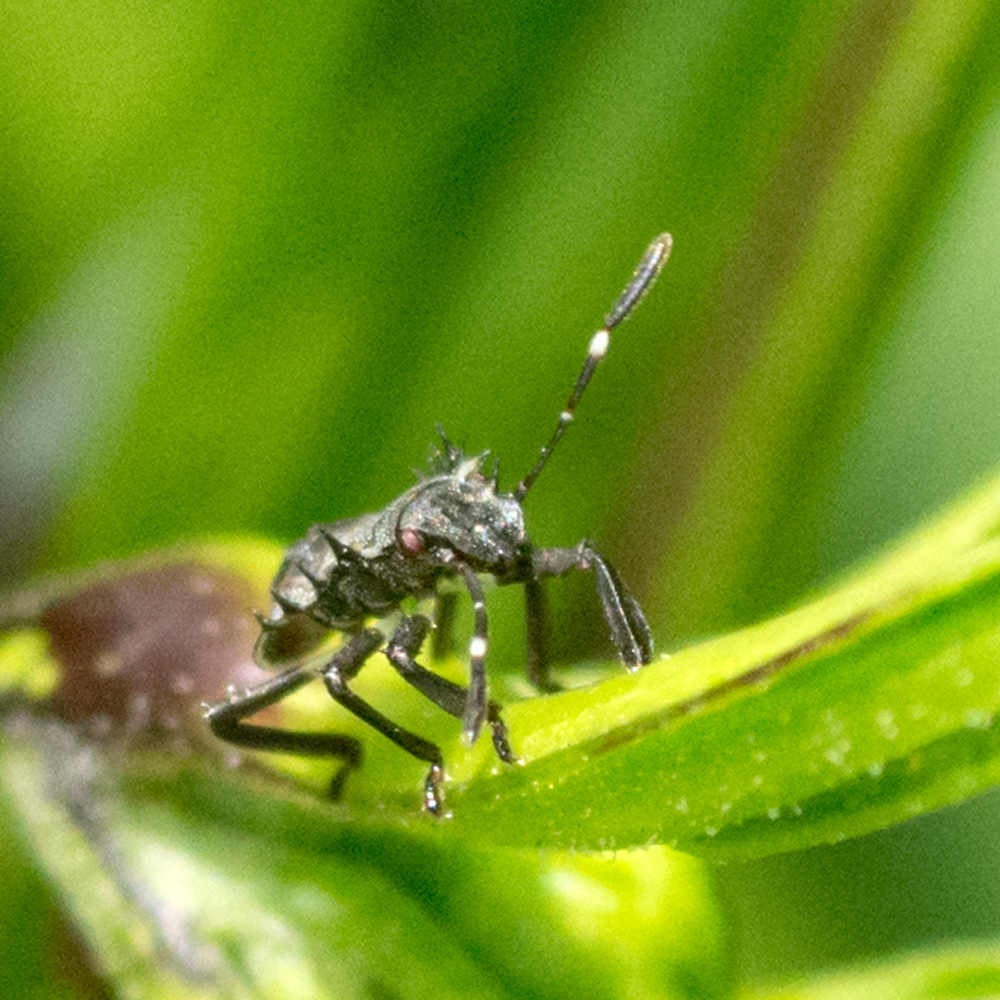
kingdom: Animalia
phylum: Arthropoda
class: Insecta
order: Hemiptera
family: Pentatomidae
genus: Halyomorpha
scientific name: Halyomorpha halys
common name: Brown marmorated stink bug
